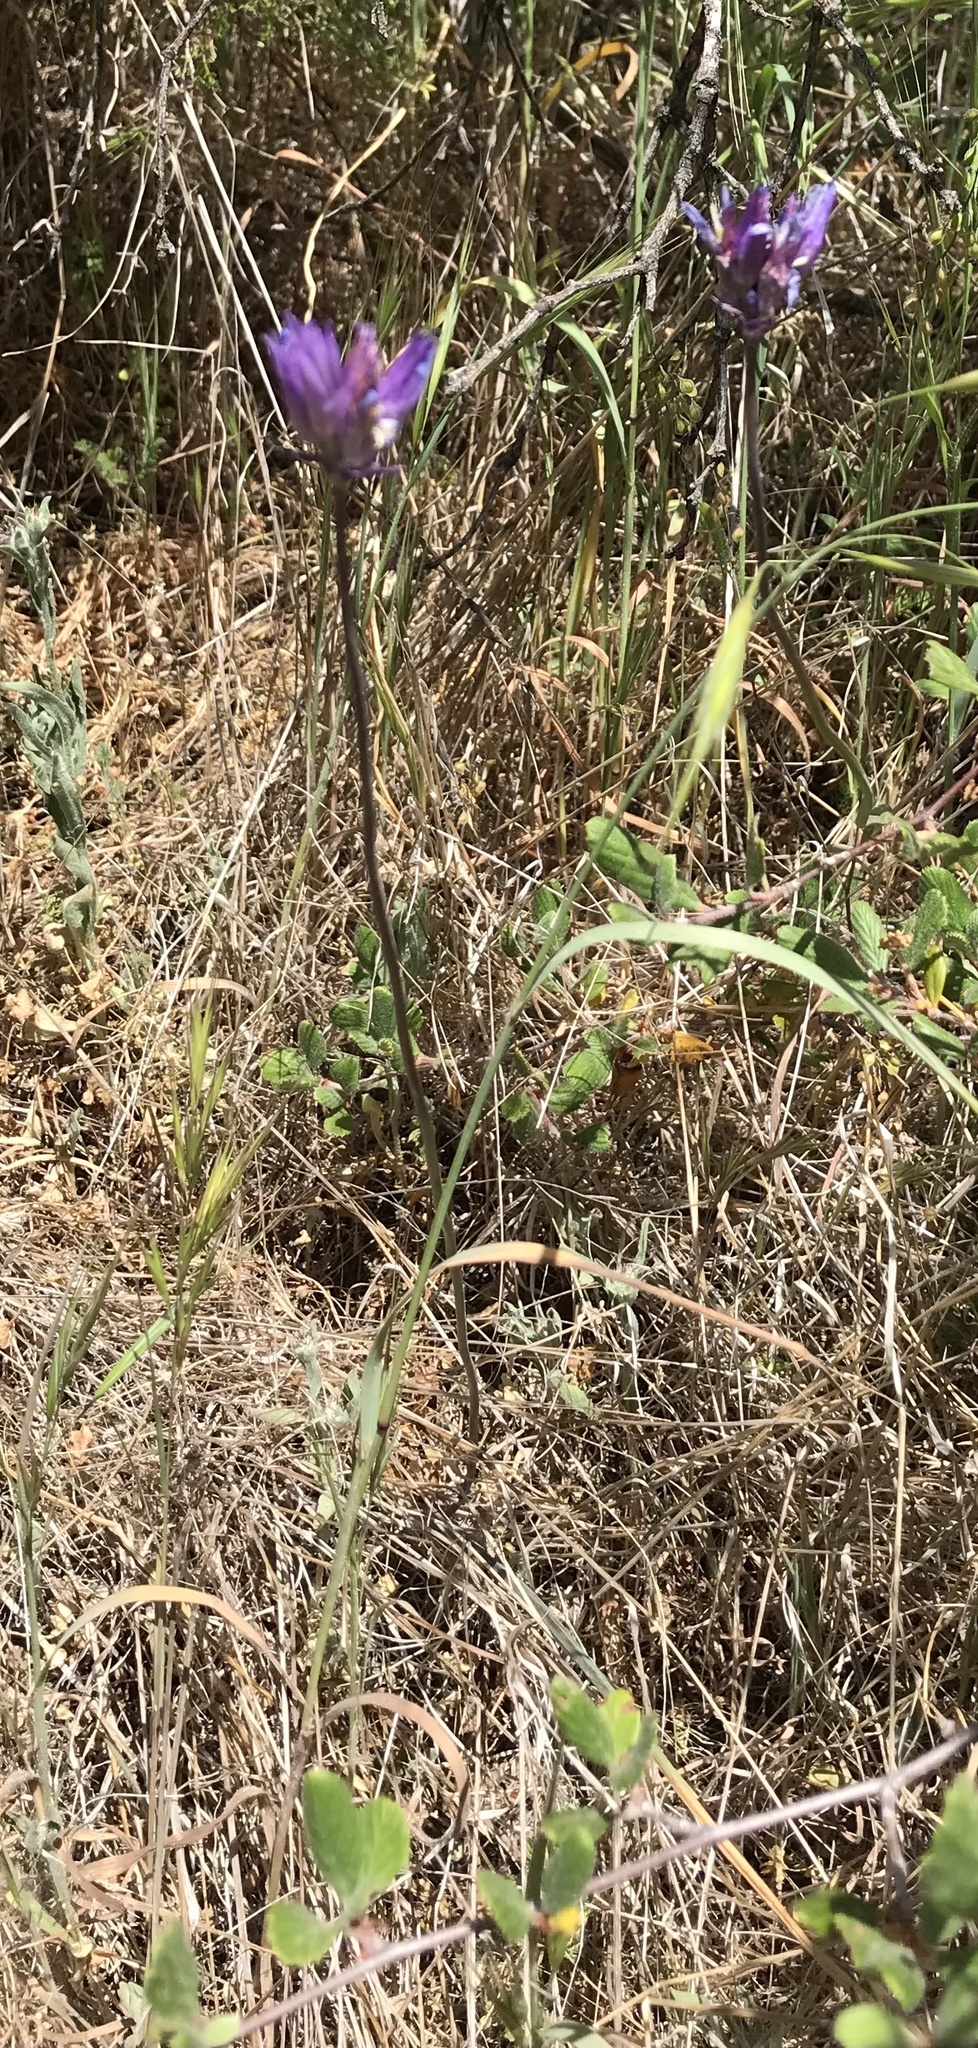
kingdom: Plantae
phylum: Tracheophyta
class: Liliopsida
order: Asparagales
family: Asparagaceae
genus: Dipterostemon
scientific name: Dipterostemon capitatus
